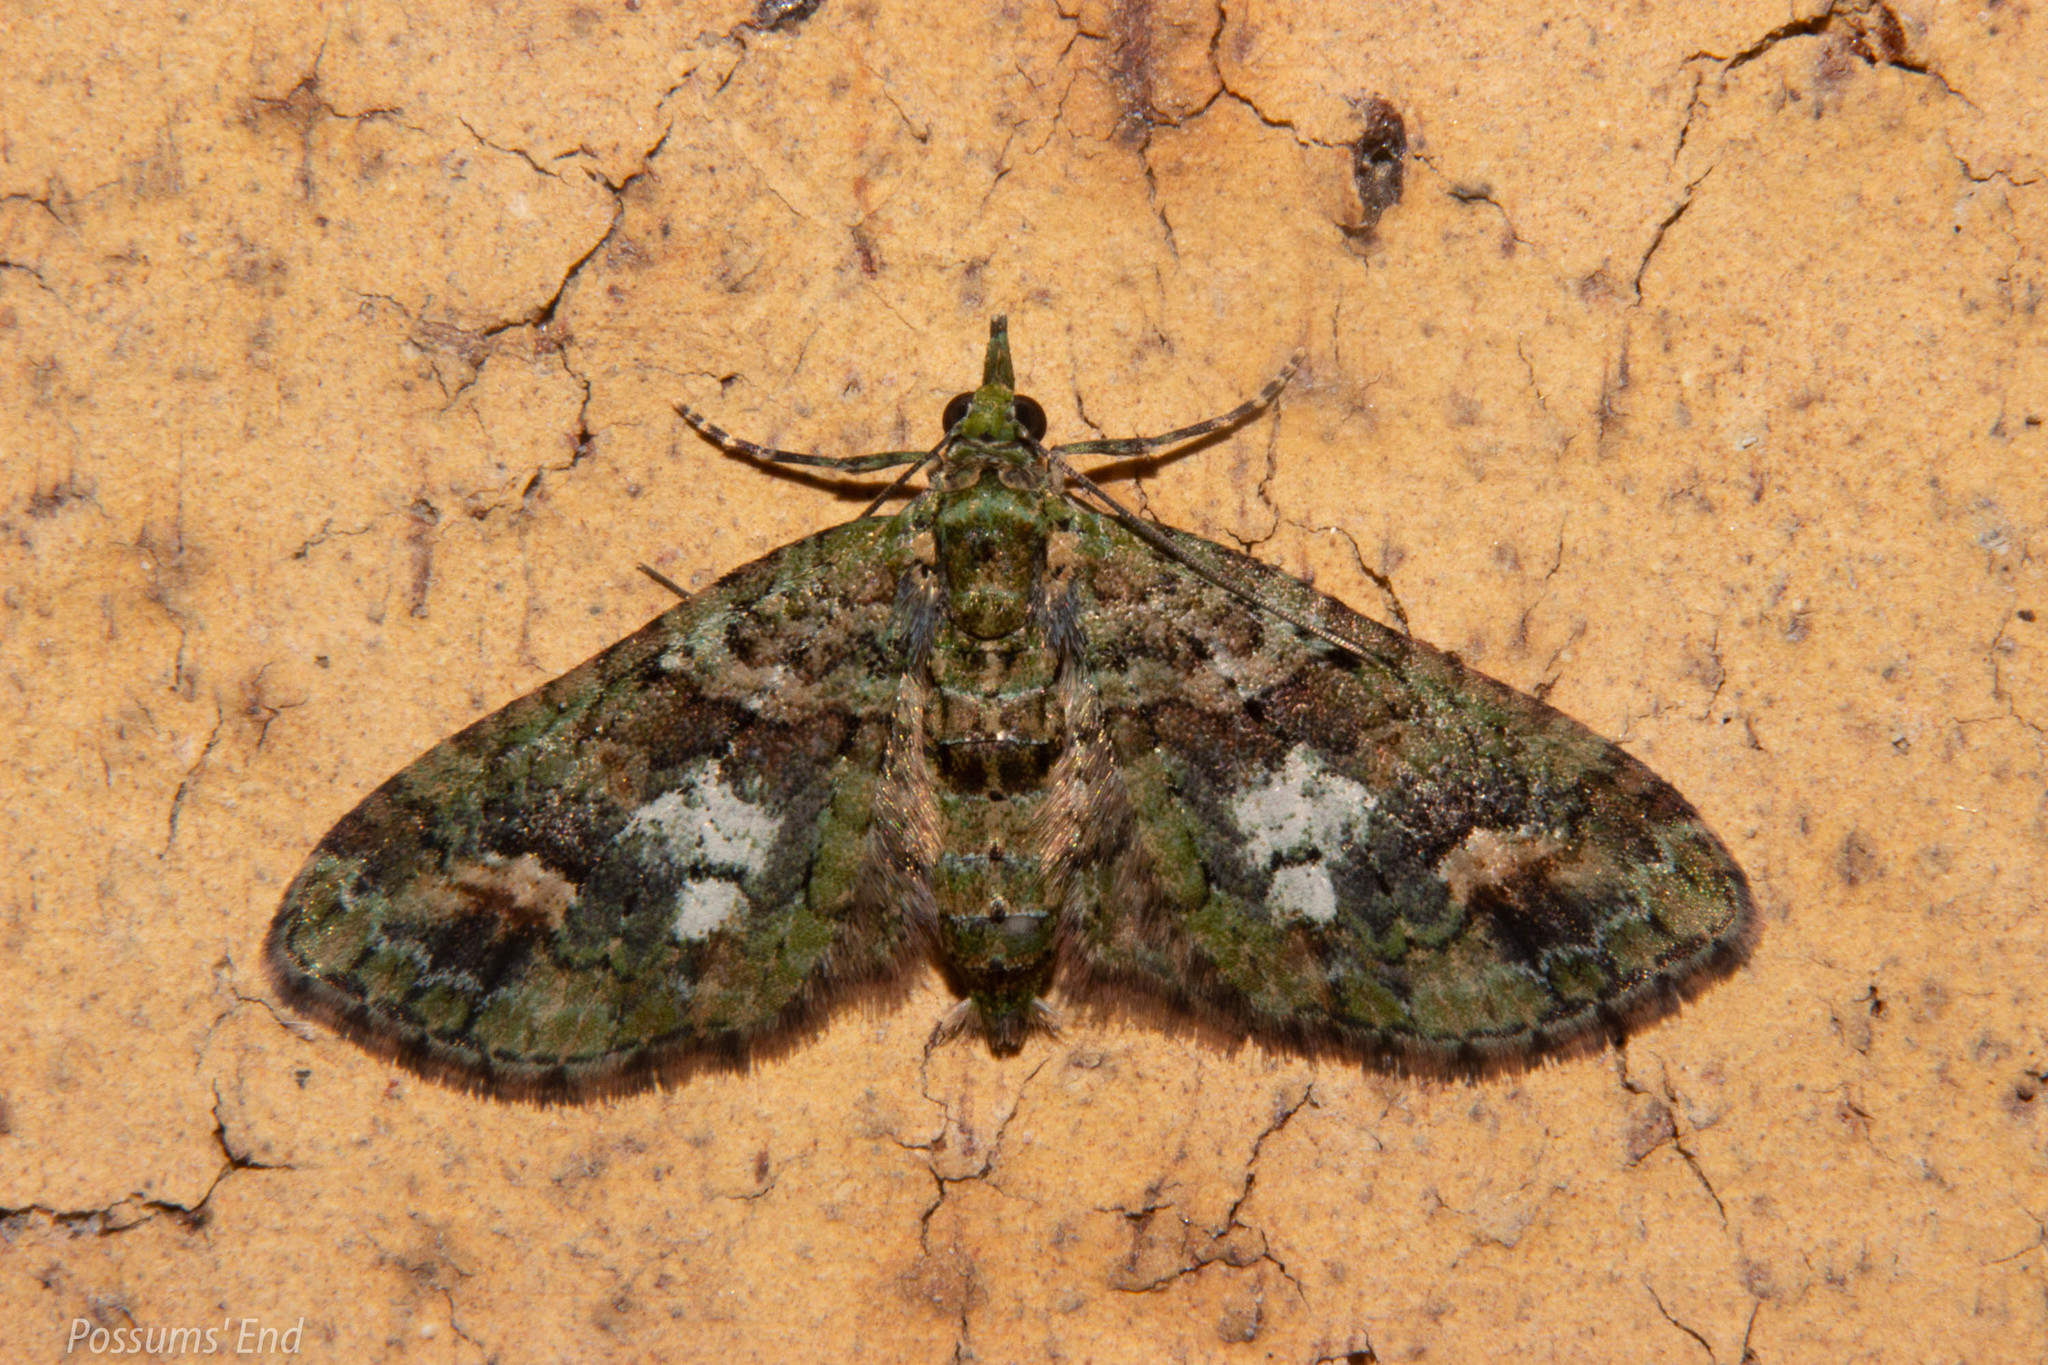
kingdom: Animalia
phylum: Arthropoda
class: Insecta
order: Lepidoptera
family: Geometridae
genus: Idaea
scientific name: Idaea mutanda
